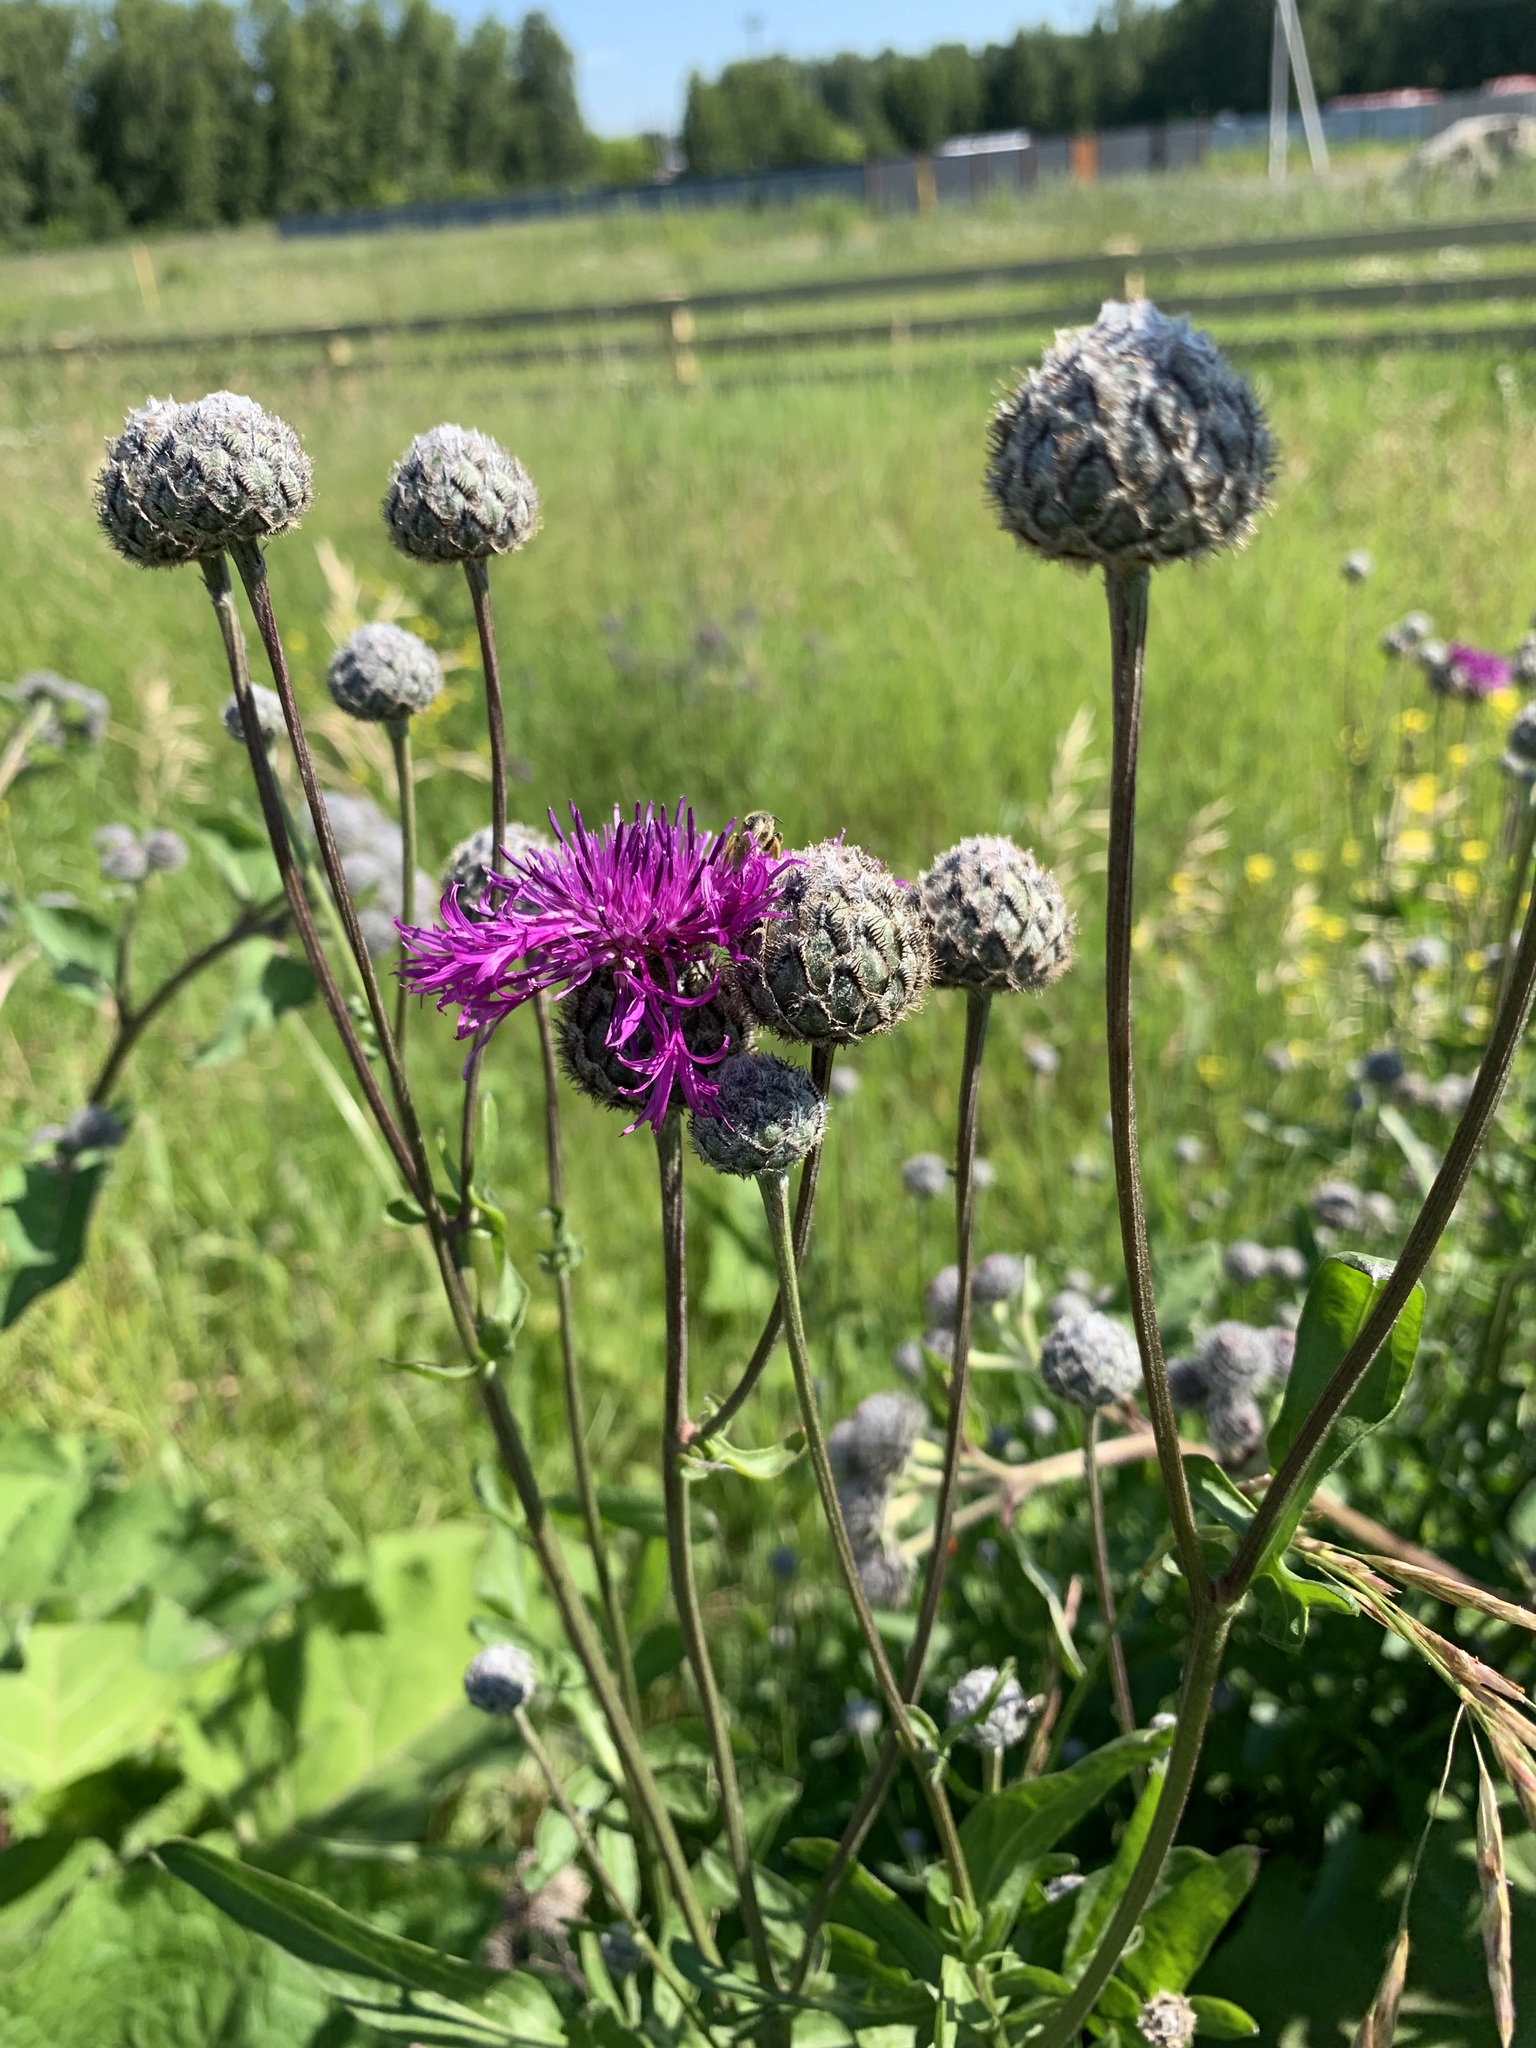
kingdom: Plantae
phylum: Tracheophyta
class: Magnoliopsida
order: Asterales
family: Asteraceae
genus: Centaurea
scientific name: Centaurea scabiosa
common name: Greater knapweed
